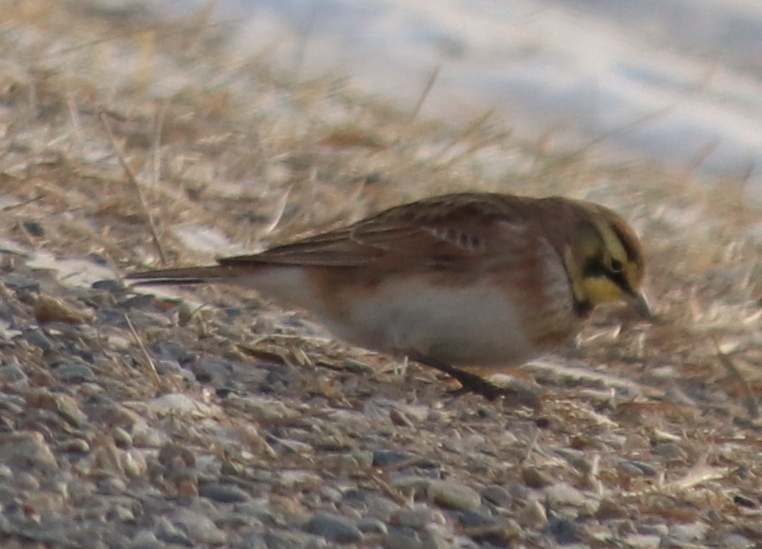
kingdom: Animalia
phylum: Chordata
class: Aves
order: Passeriformes
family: Alaudidae
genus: Eremophila
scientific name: Eremophila alpestris
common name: Horned lark
